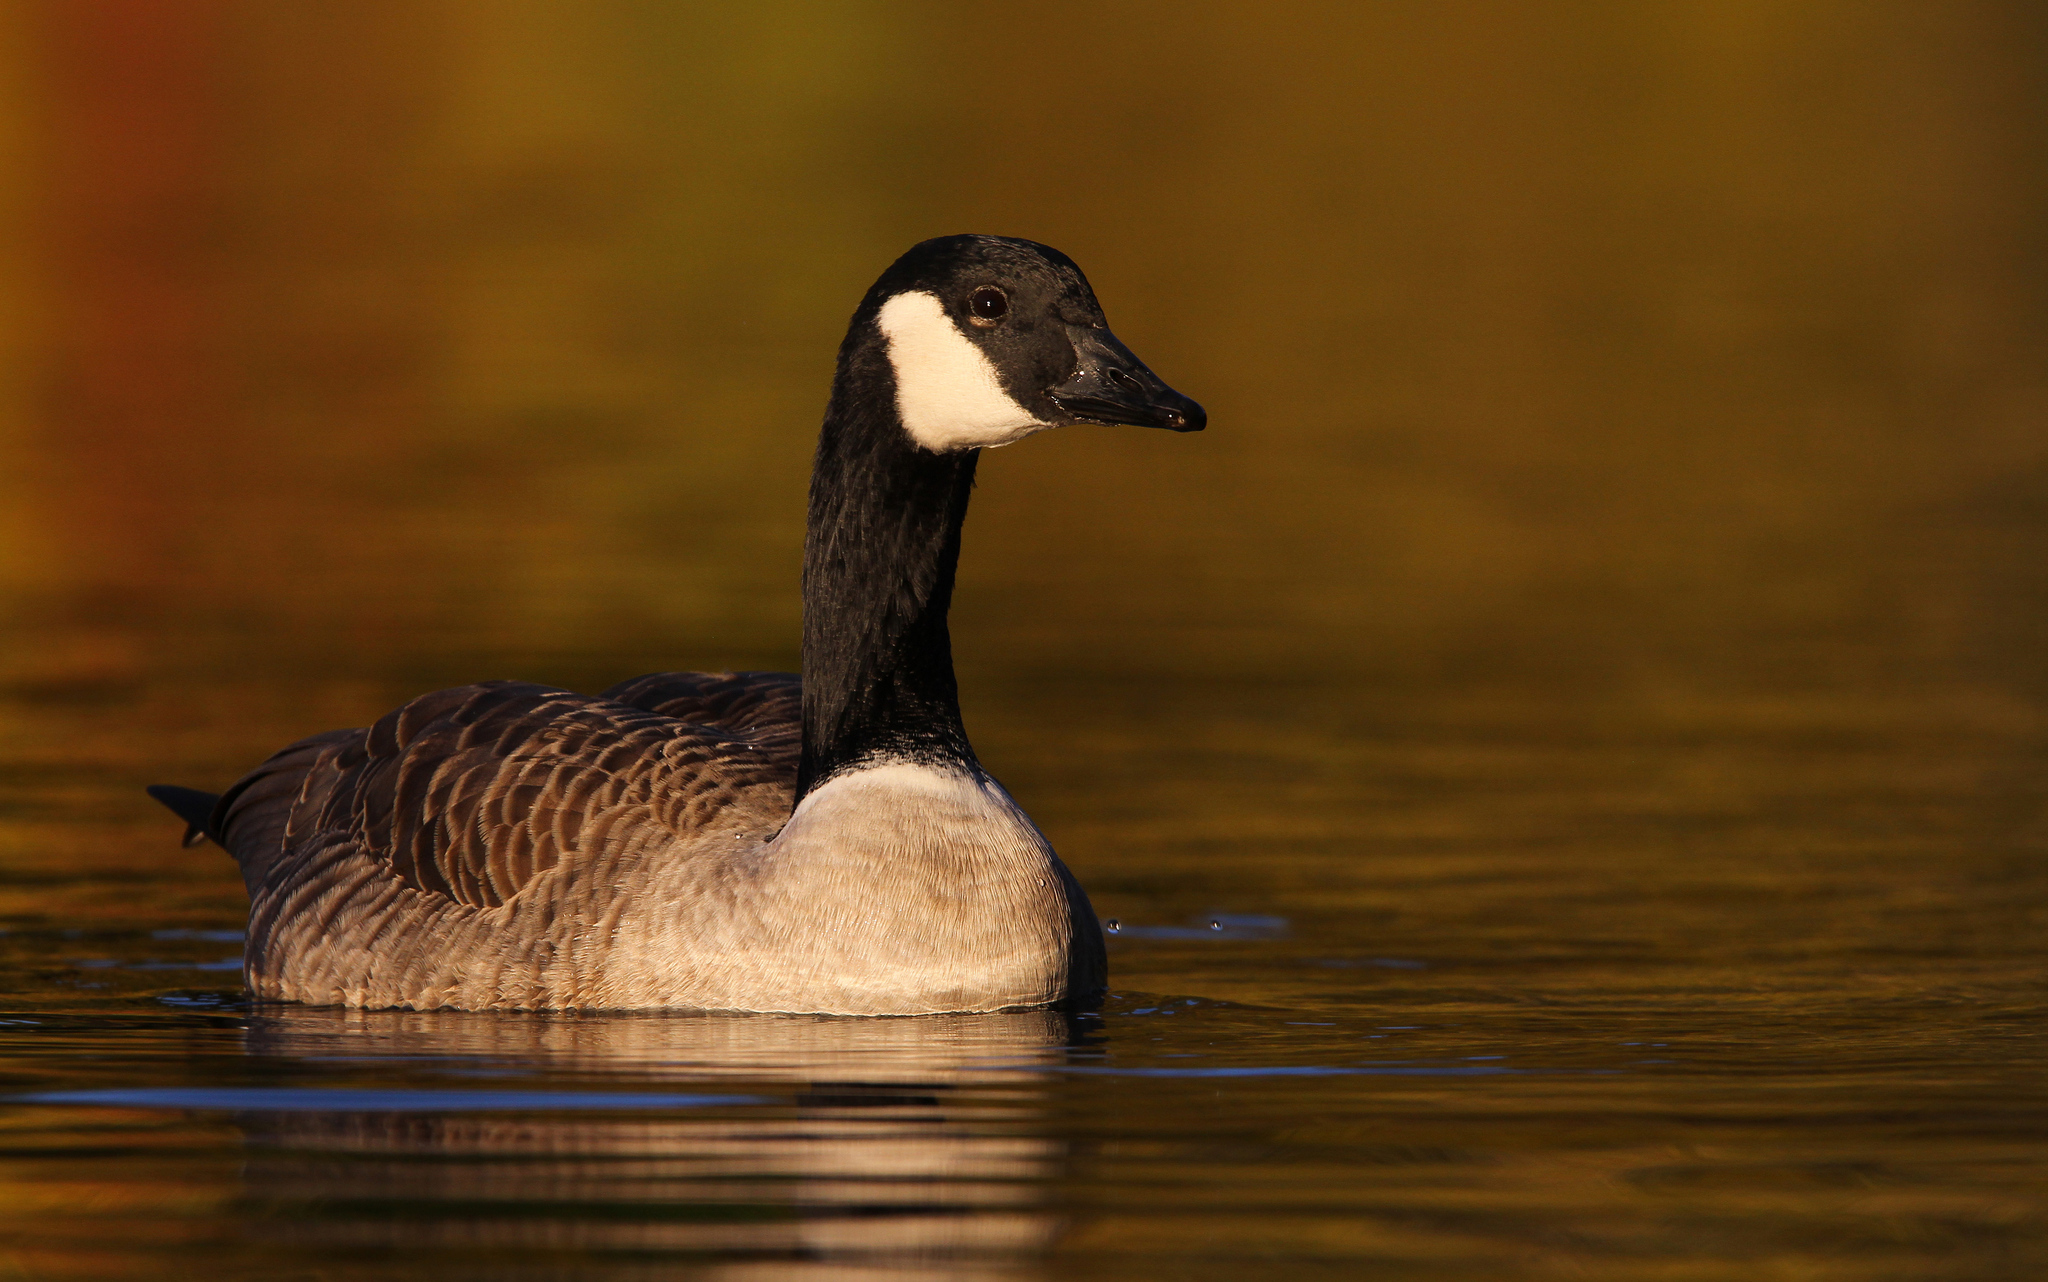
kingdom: Animalia
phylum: Chordata
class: Aves
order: Anseriformes
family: Anatidae
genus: Branta
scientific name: Branta canadensis
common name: Canada goose
